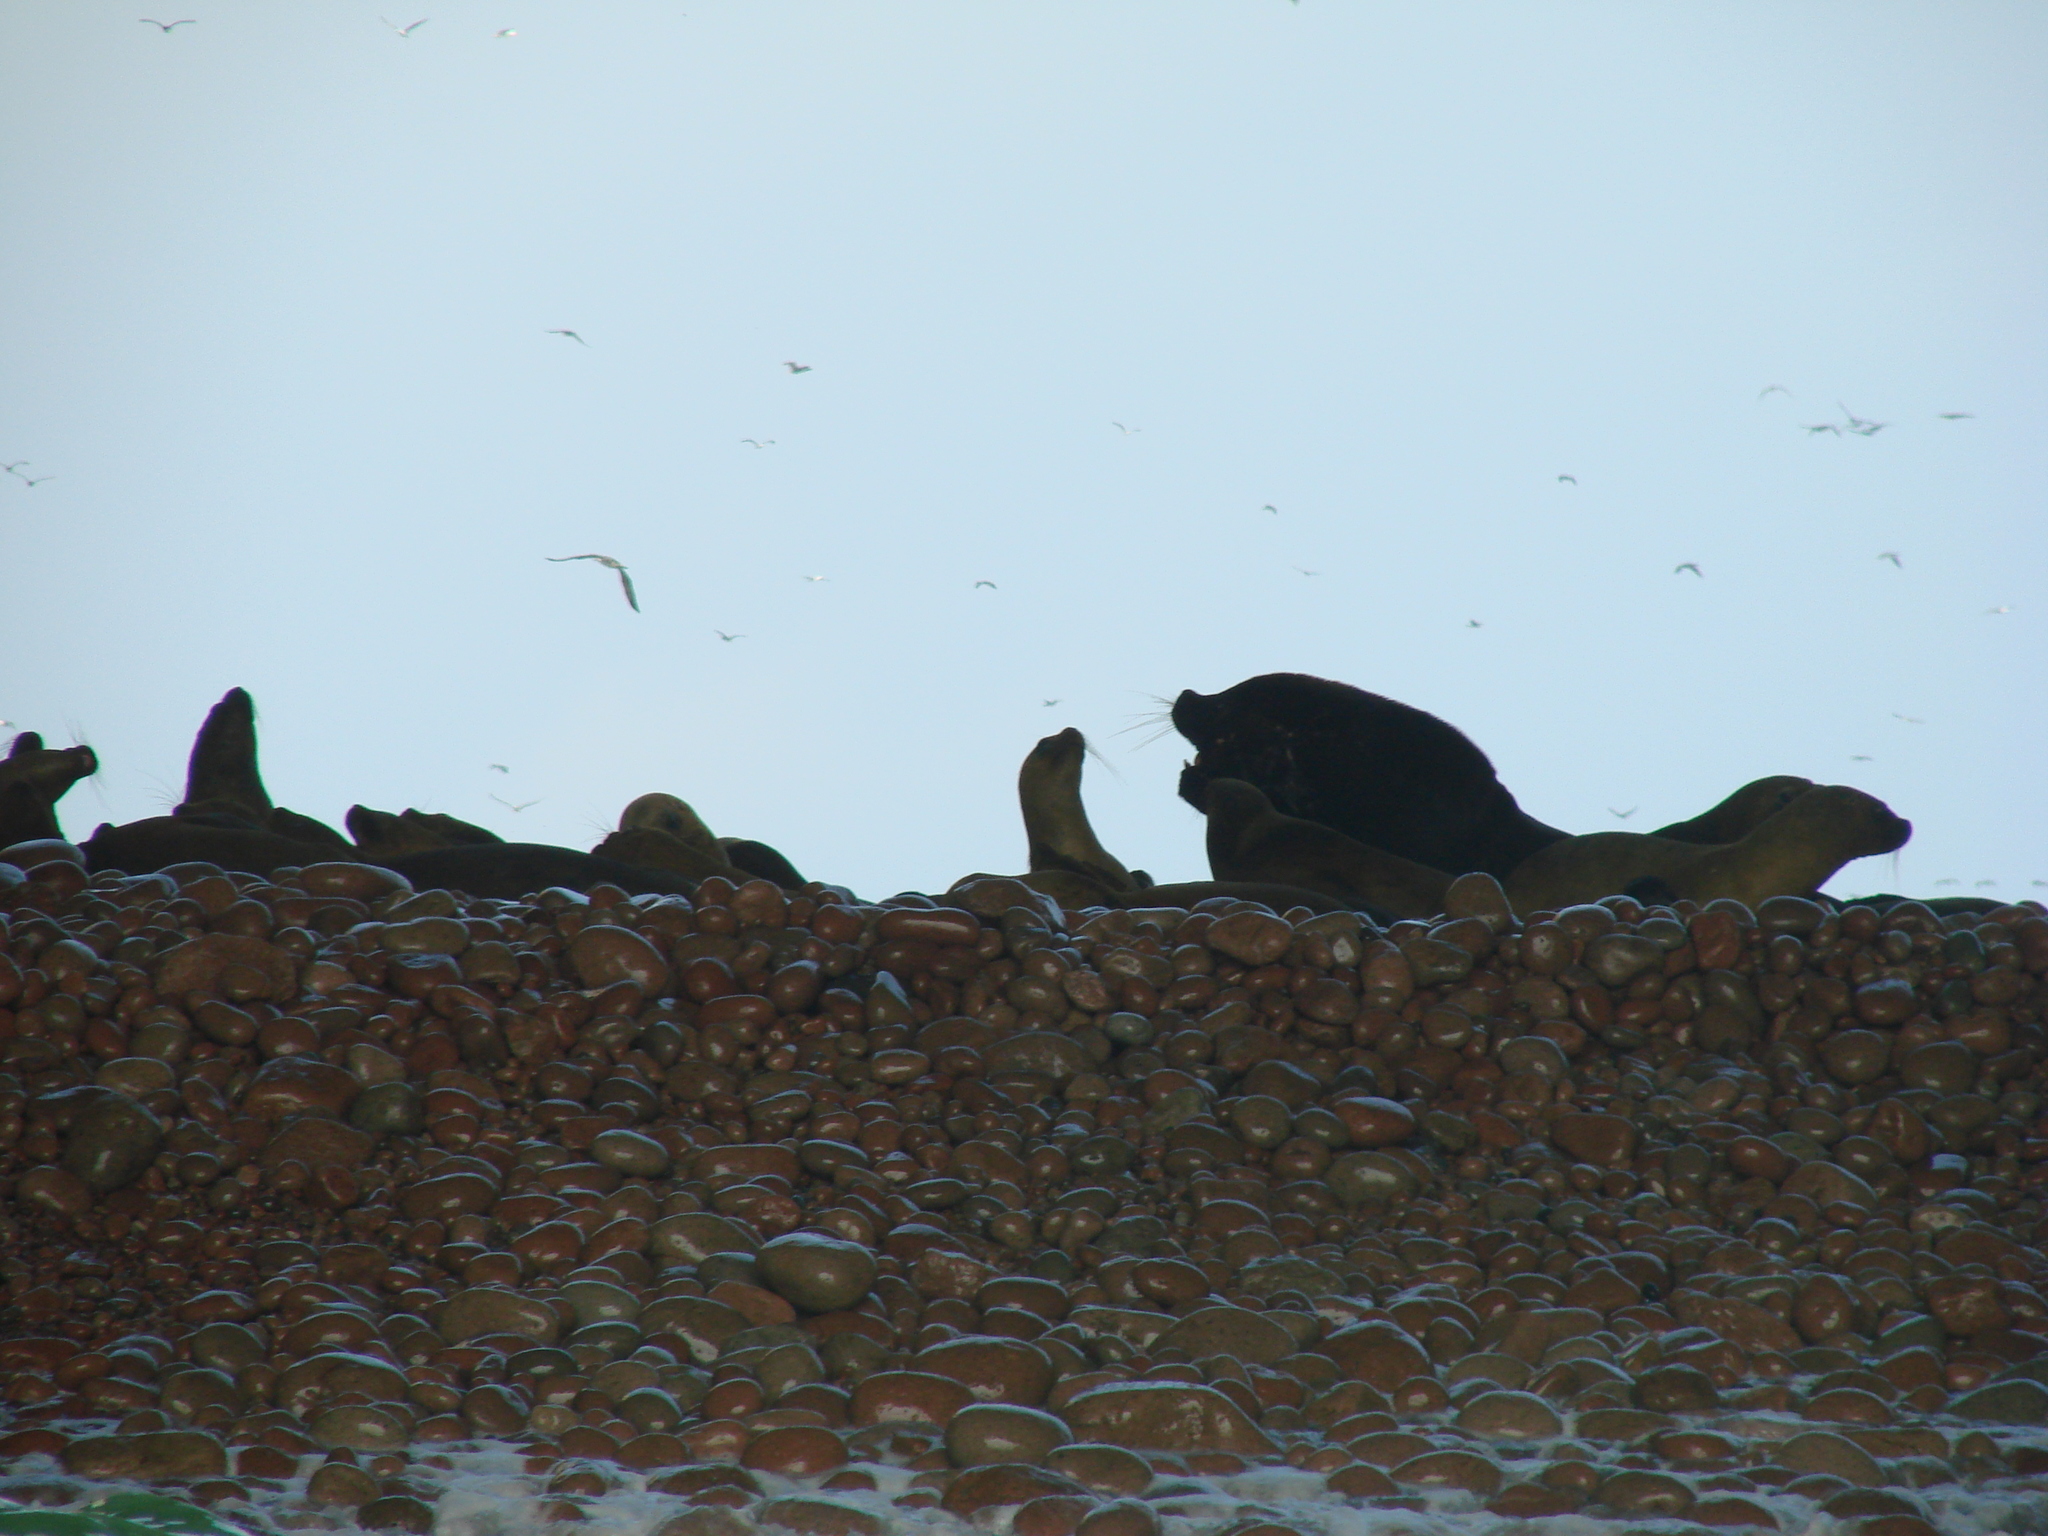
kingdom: Animalia
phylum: Chordata
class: Mammalia
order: Carnivora
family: Otariidae
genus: Otaria
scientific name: Otaria byronia
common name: South american sea lion
